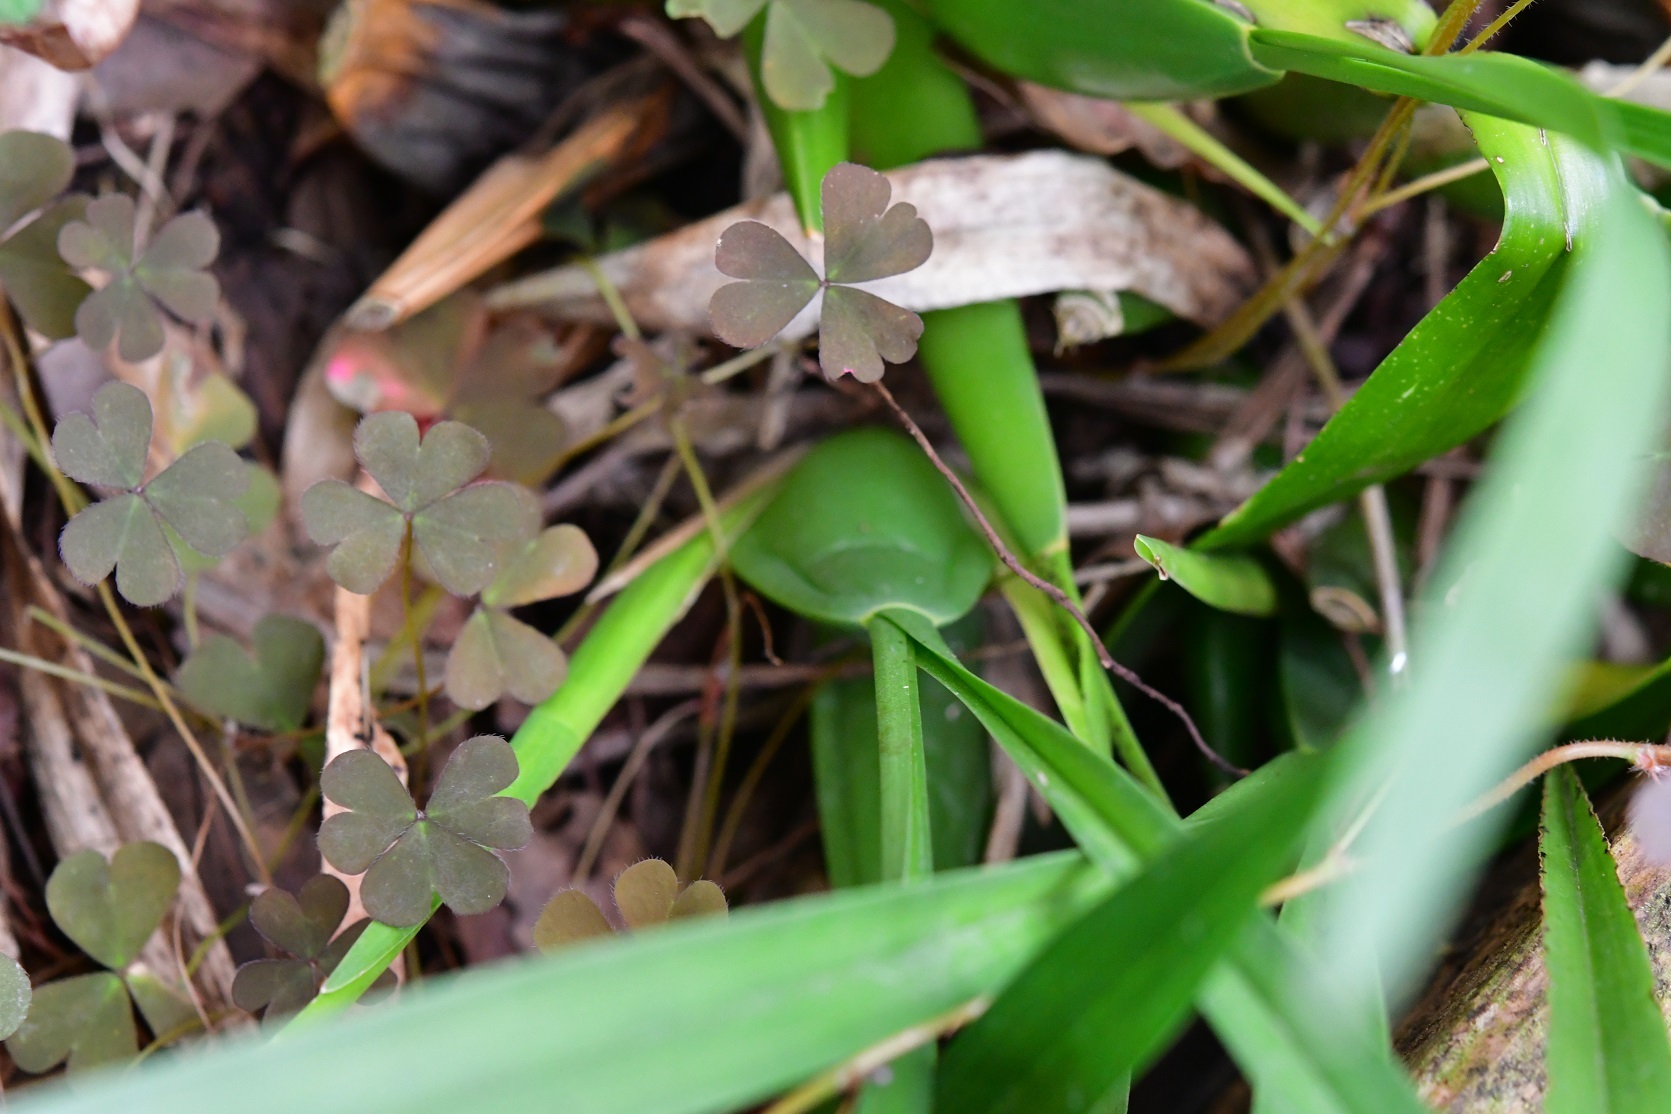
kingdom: Plantae
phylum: Tracheophyta
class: Liliopsida
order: Asparagales
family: Orchidaceae
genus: Cuitlauzina
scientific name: Cuitlauzina pulchella
